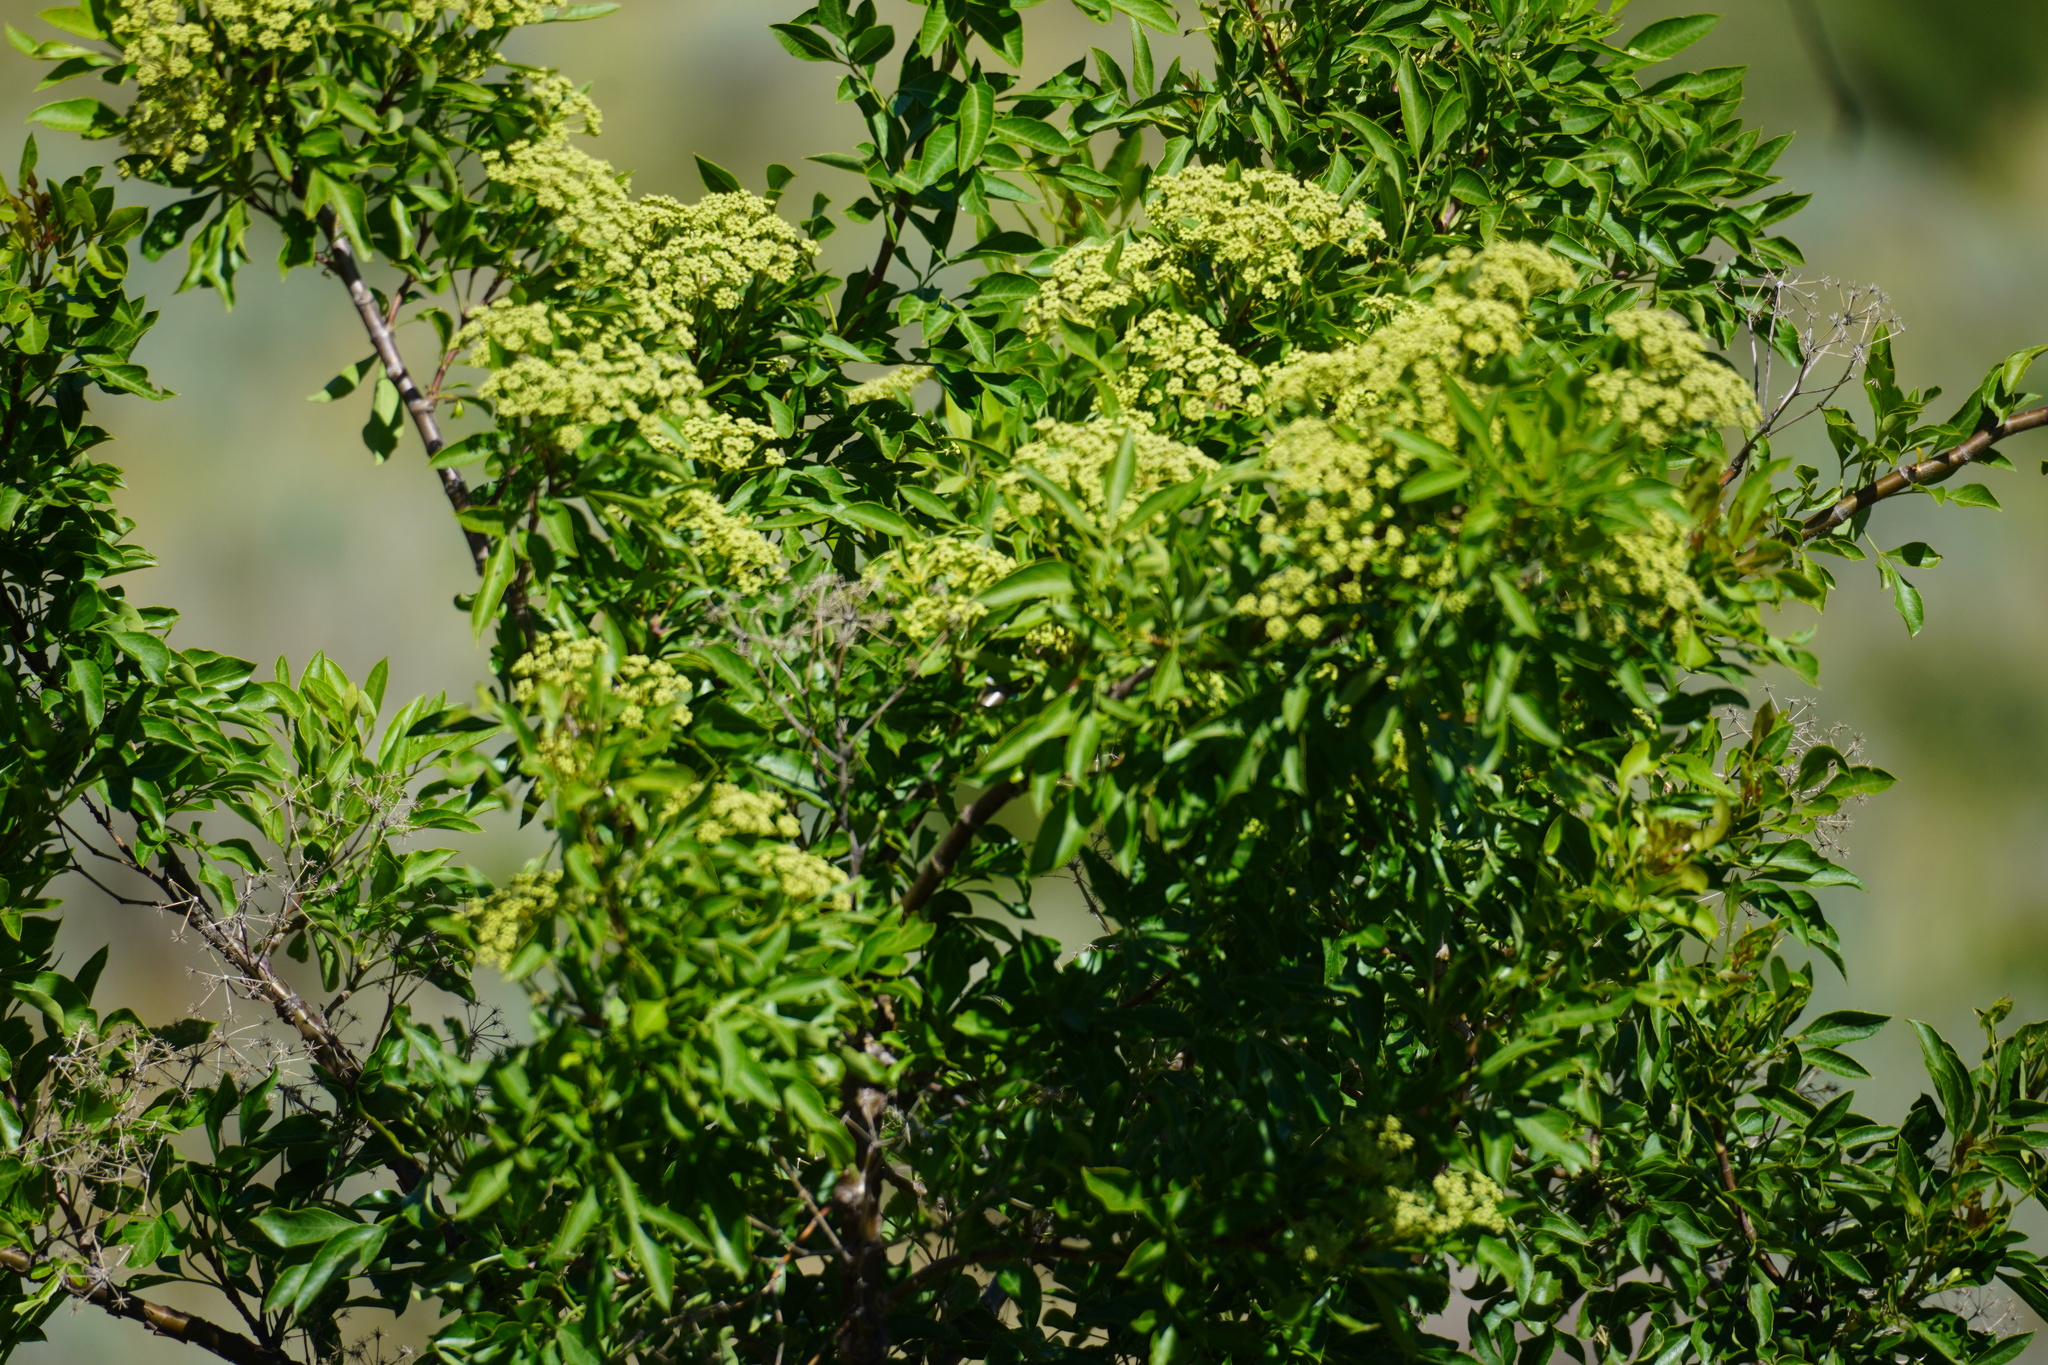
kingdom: Plantae
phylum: Tracheophyta
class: Magnoliopsida
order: Apiales
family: Apiaceae
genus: Heteromorpha
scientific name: Heteromorpha arborescens
